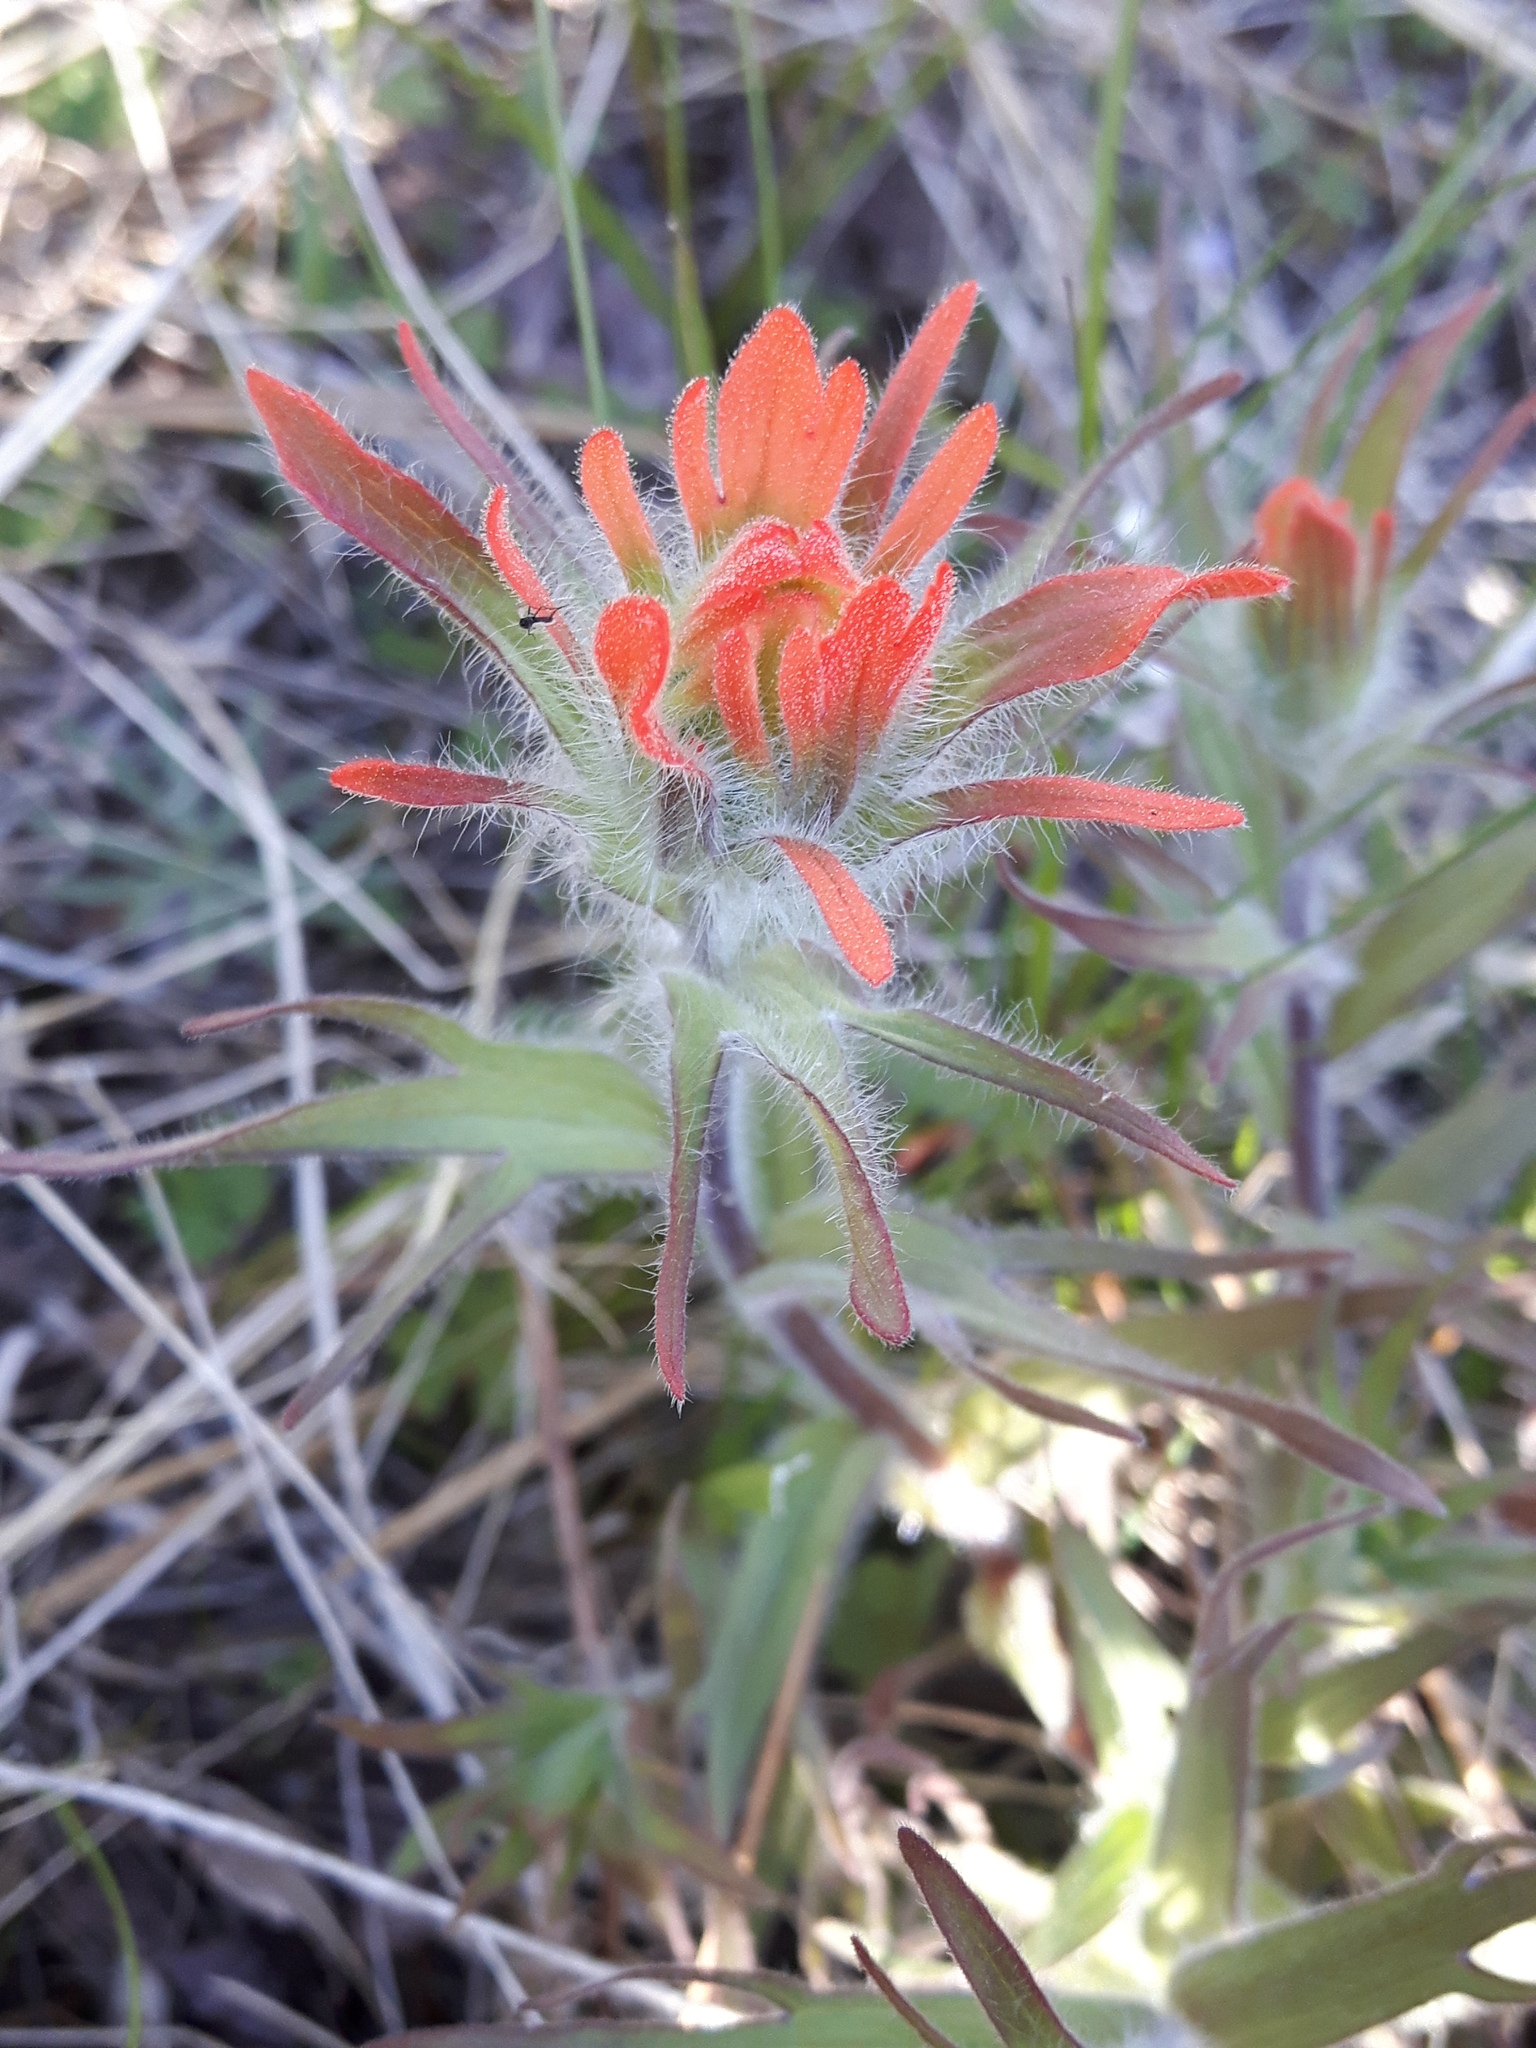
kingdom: Plantae
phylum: Tracheophyta
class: Magnoliopsida
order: Lamiales
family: Orobanchaceae
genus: Castilleja
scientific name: Castilleja hispida
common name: Bristly paintbrush
